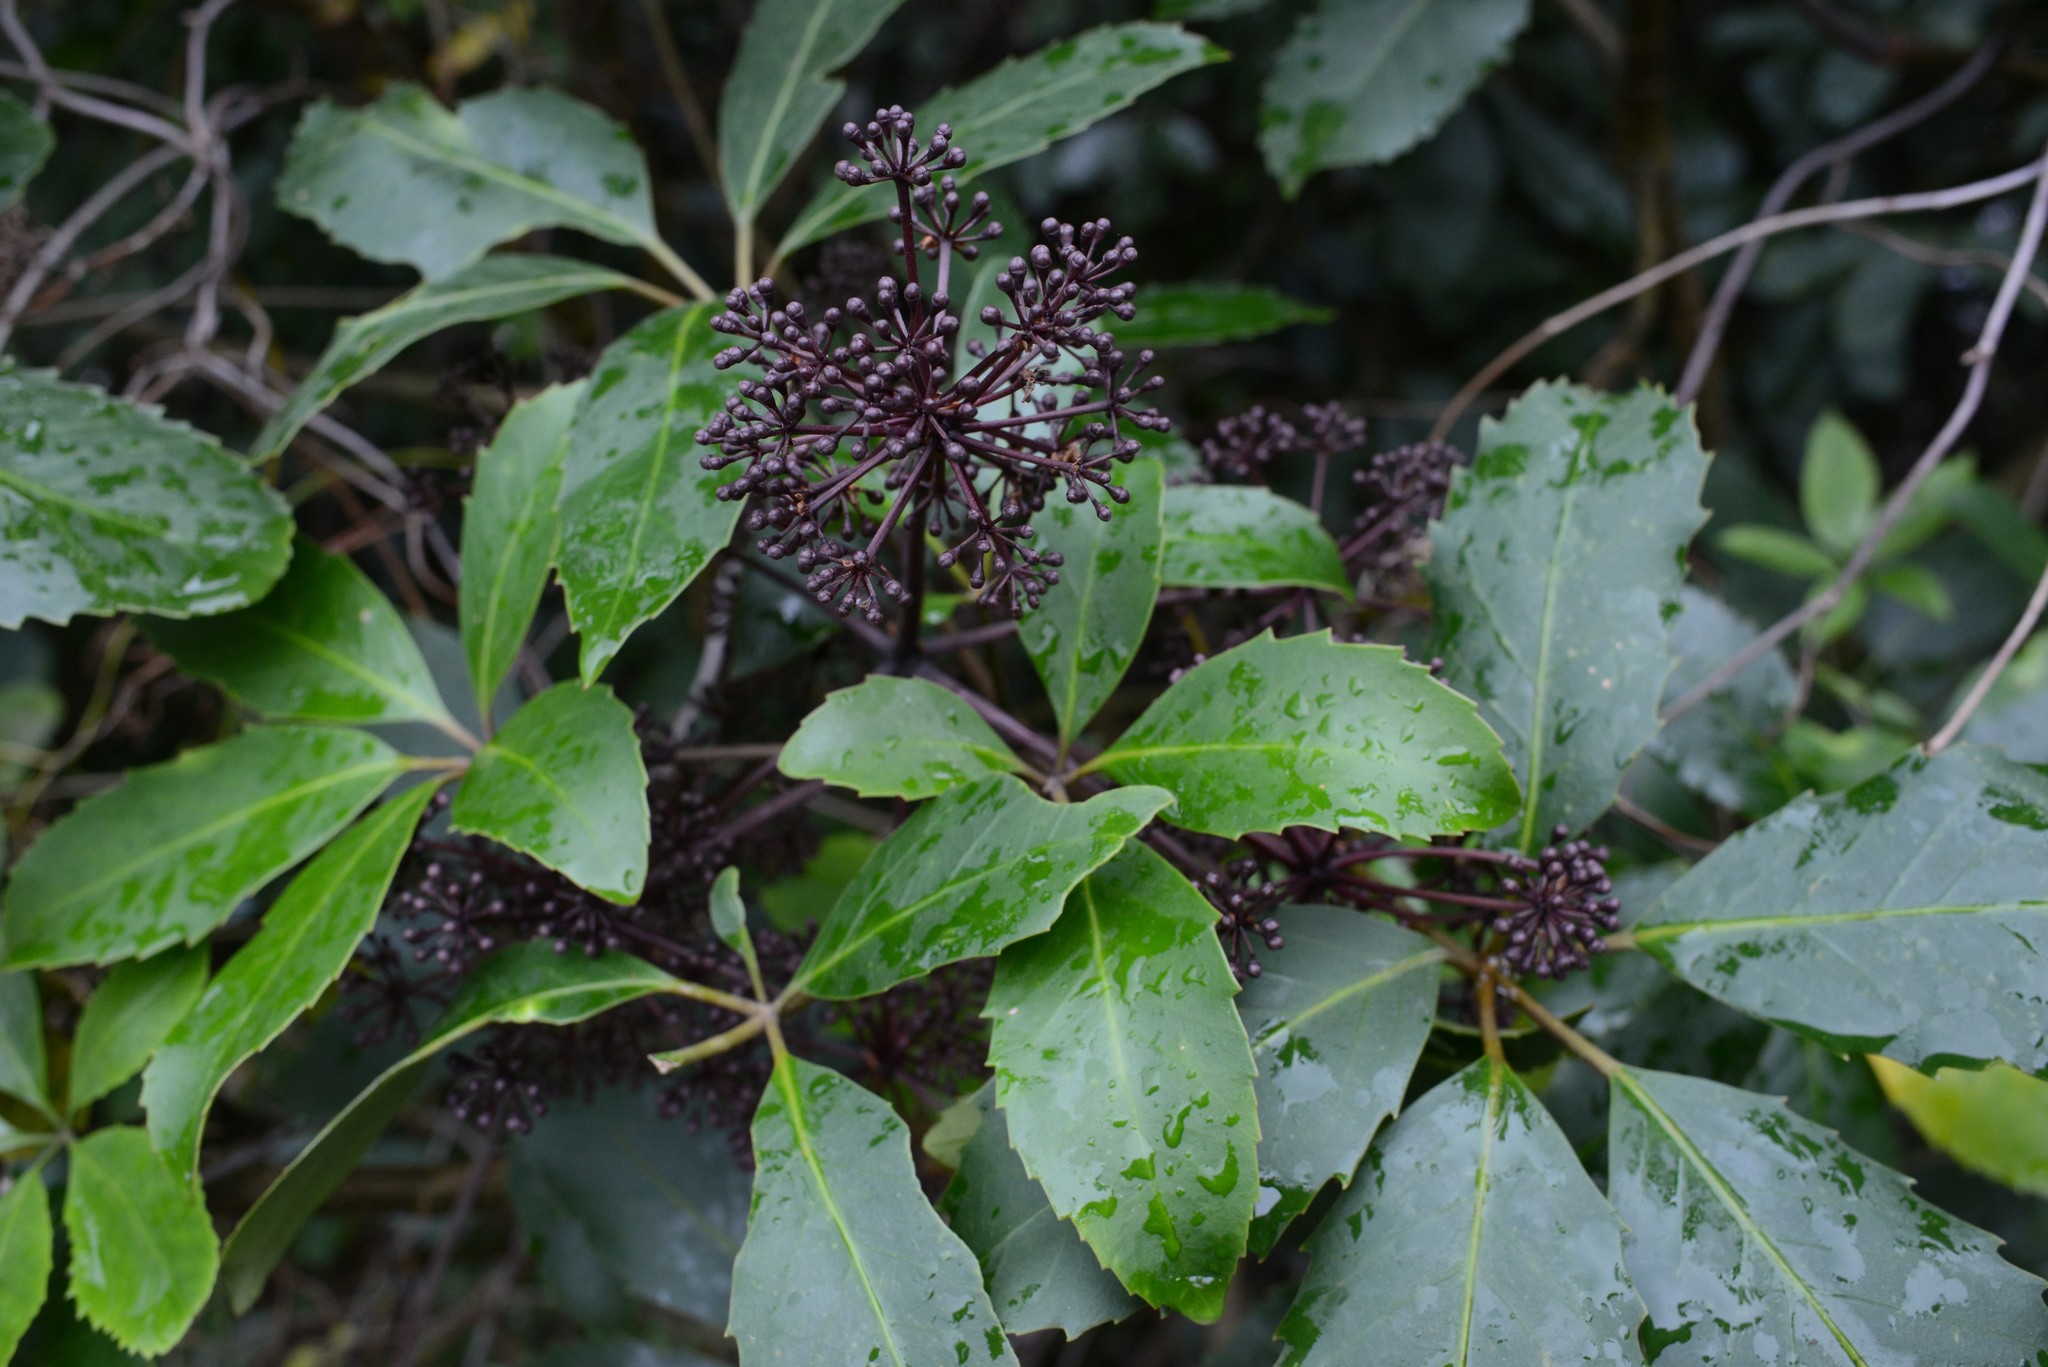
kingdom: Plantae
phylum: Tracheophyta
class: Magnoliopsida
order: Apiales
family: Araliaceae
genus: Neopanax
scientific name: Neopanax arboreus
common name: Five-fingers
